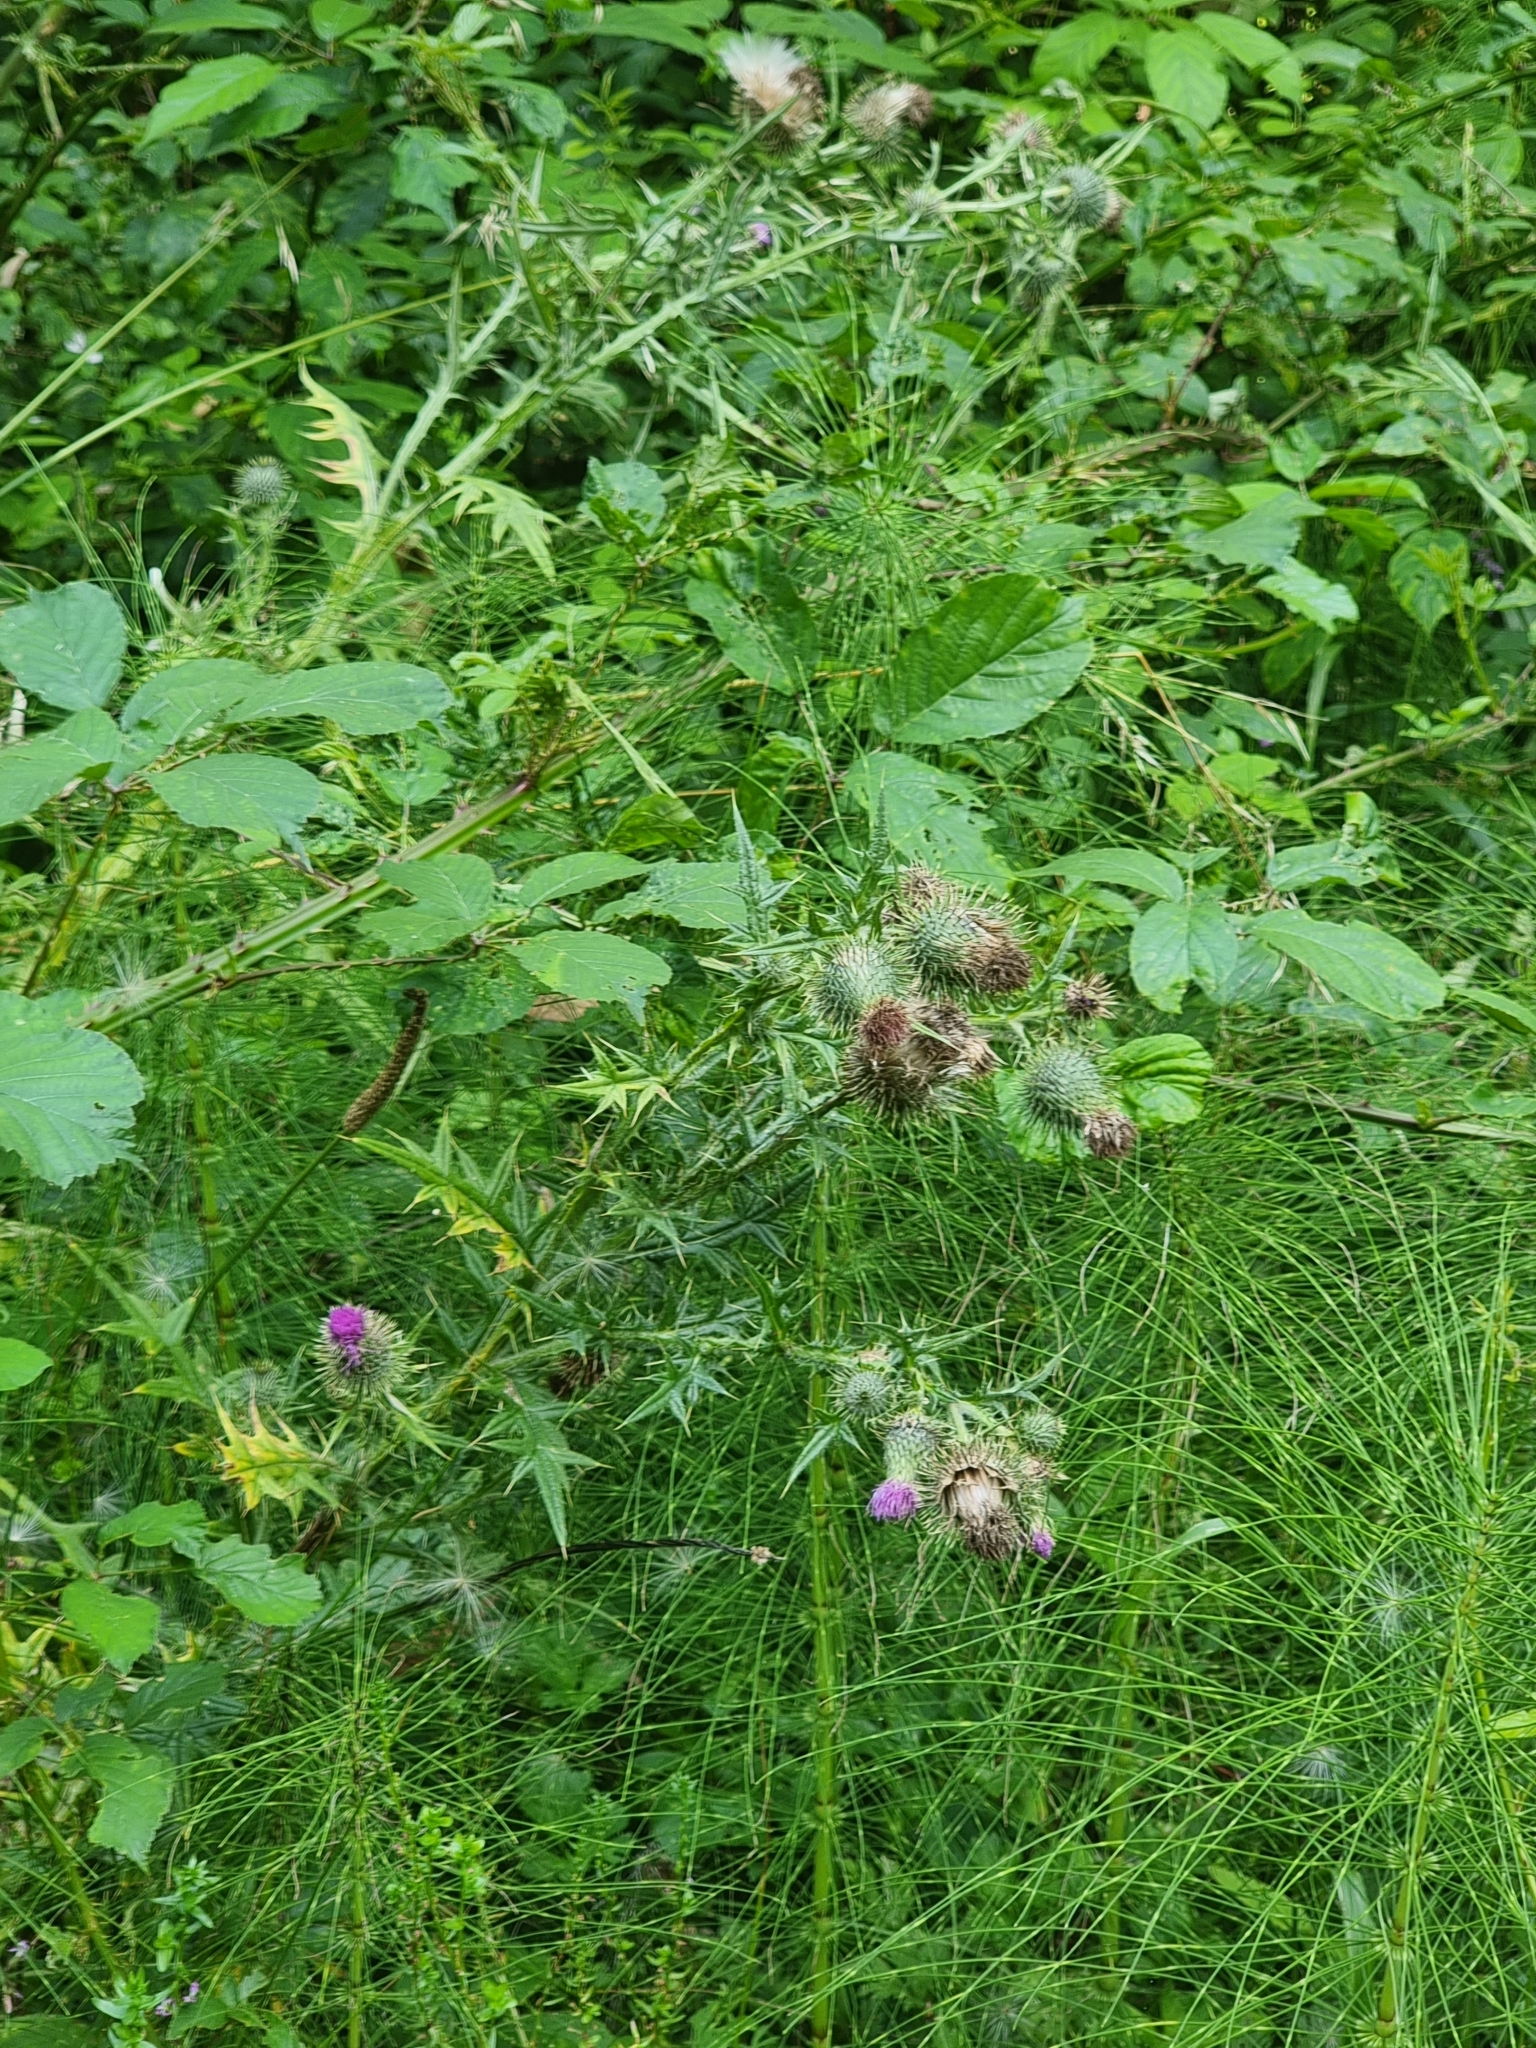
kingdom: Plantae
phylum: Tracheophyta
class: Magnoliopsida
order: Asterales
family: Asteraceae
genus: Cirsium
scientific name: Cirsium vulgare
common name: Bull thistle
